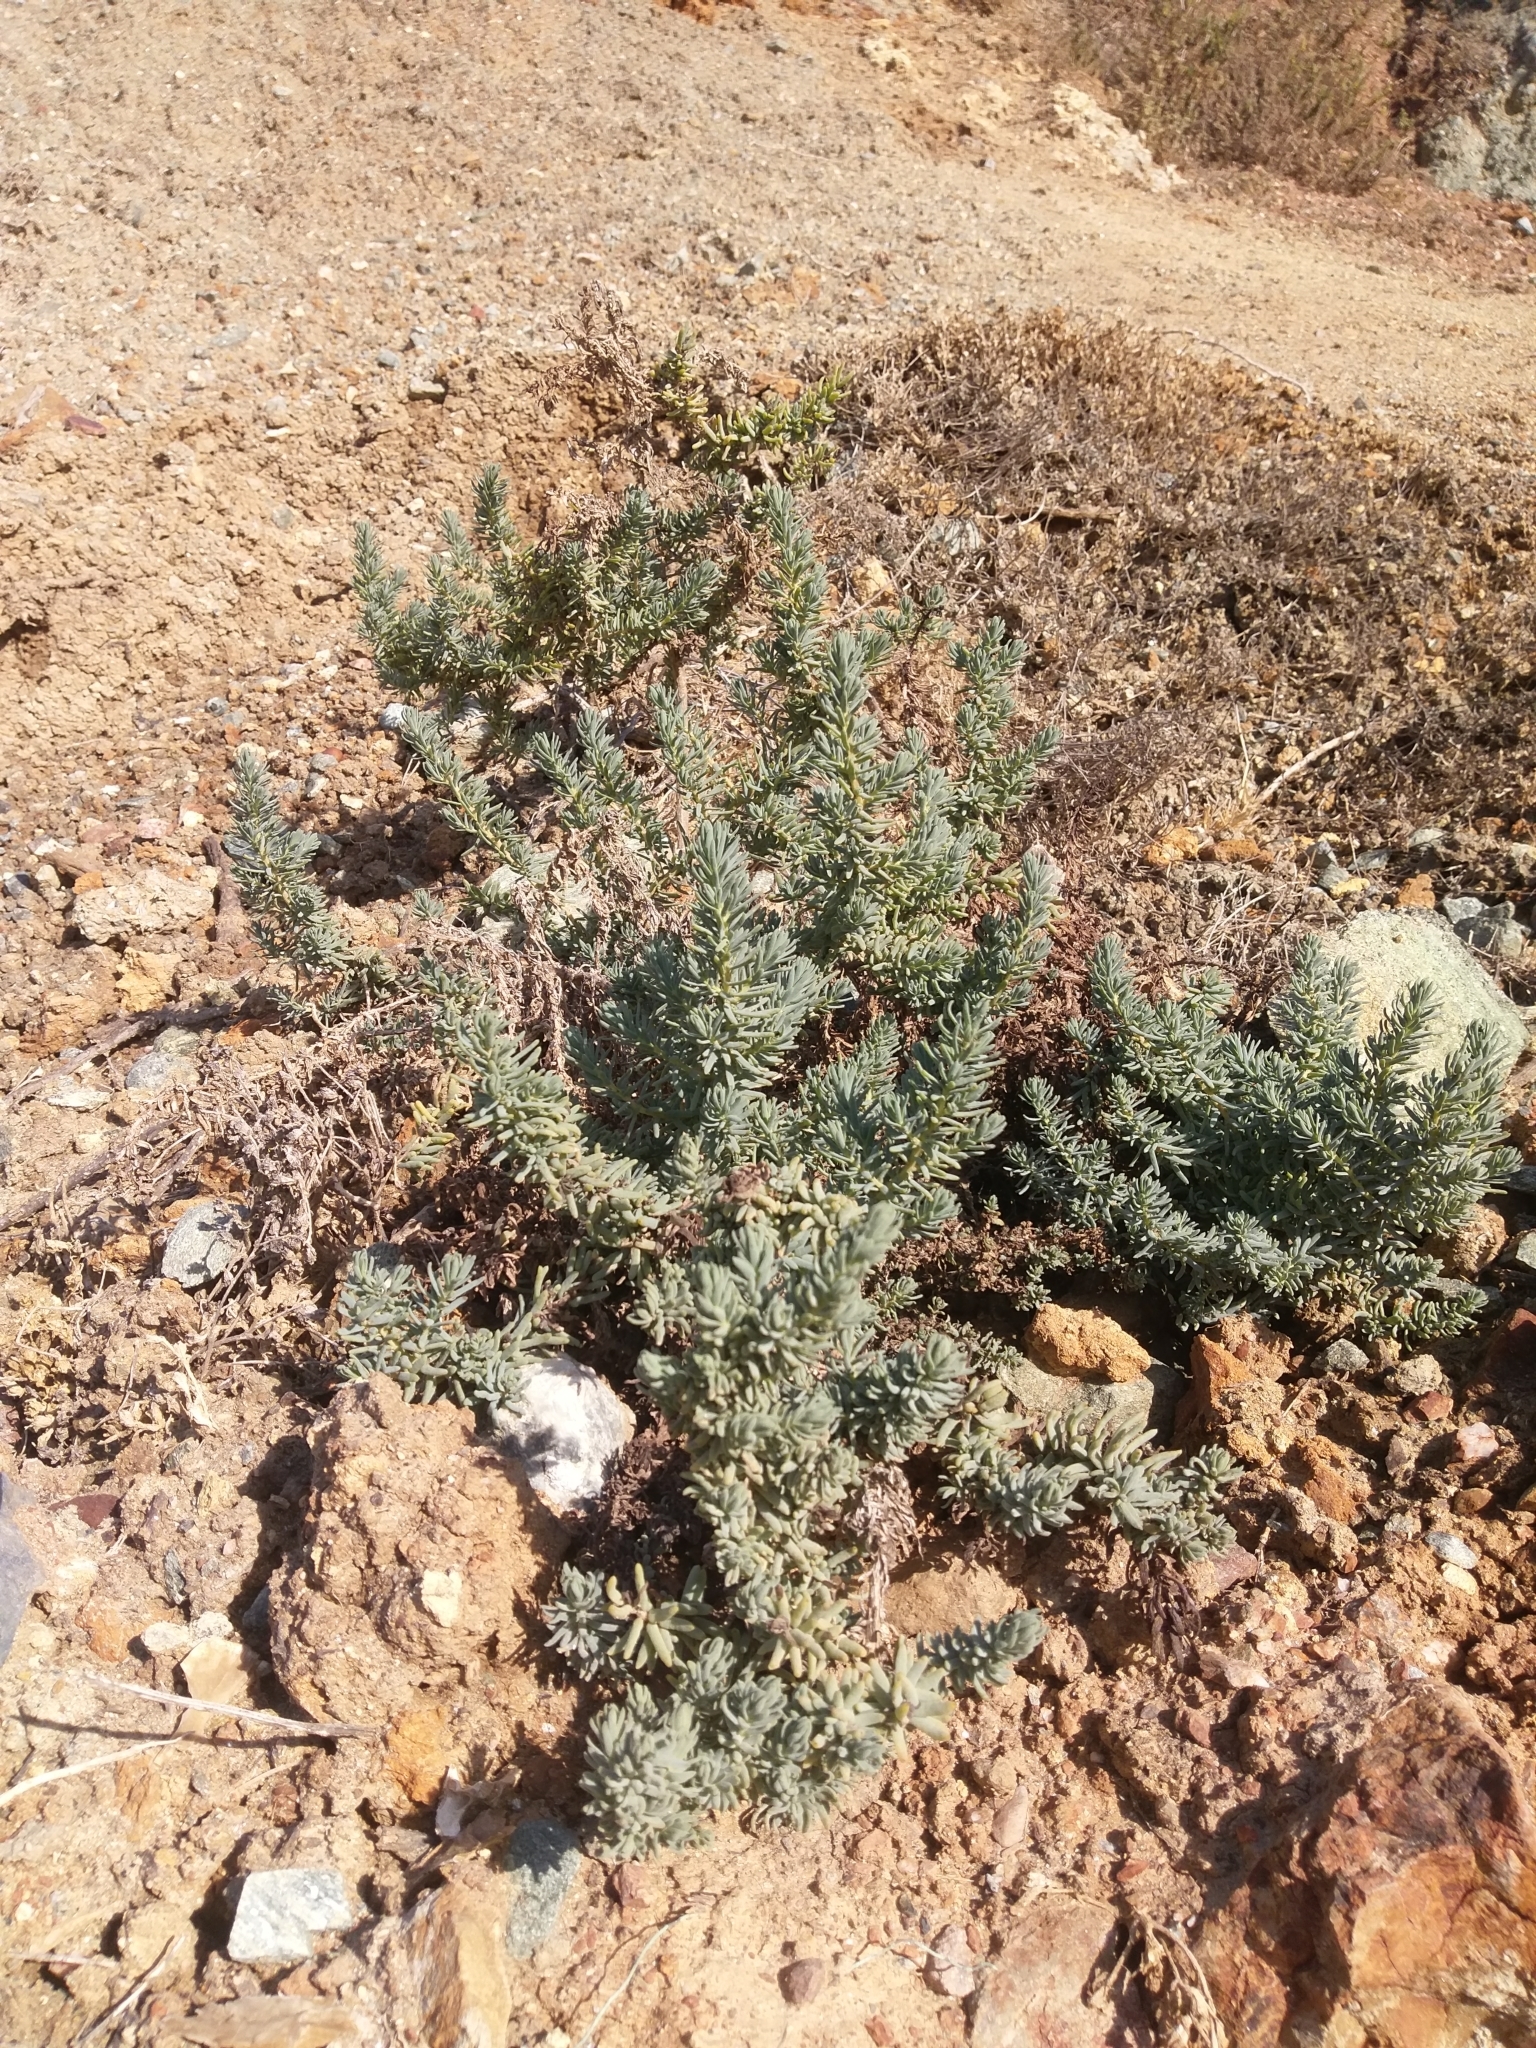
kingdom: Plantae
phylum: Tracheophyta
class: Magnoliopsida
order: Caryophyllales
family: Amaranthaceae
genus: Suaeda
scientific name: Suaeda taxifolia
